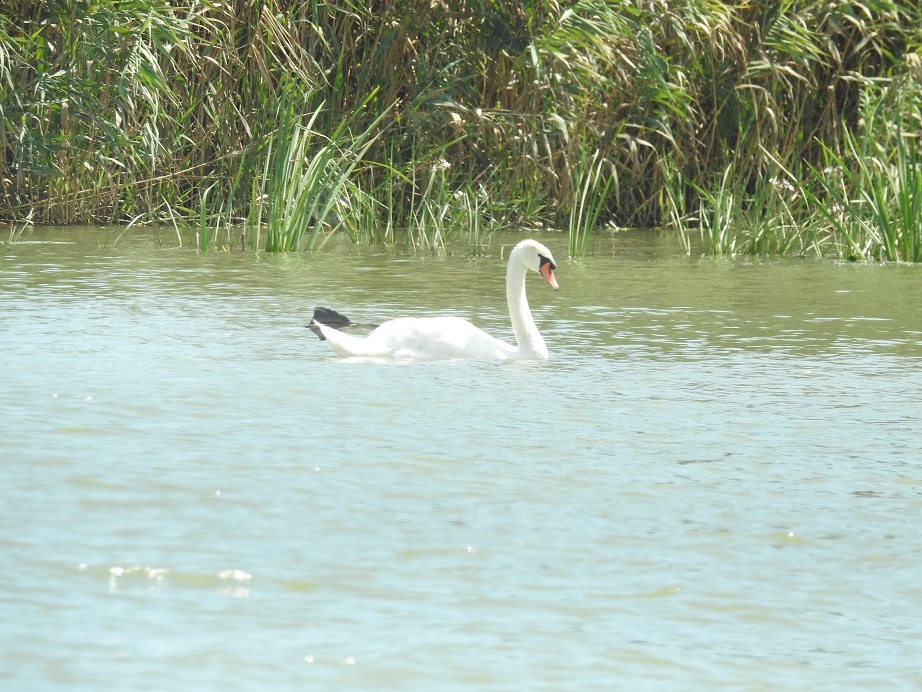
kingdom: Animalia
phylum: Chordata
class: Aves
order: Anseriformes
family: Anatidae
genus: Cygnus
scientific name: Cygnus olor
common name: Mute swan
